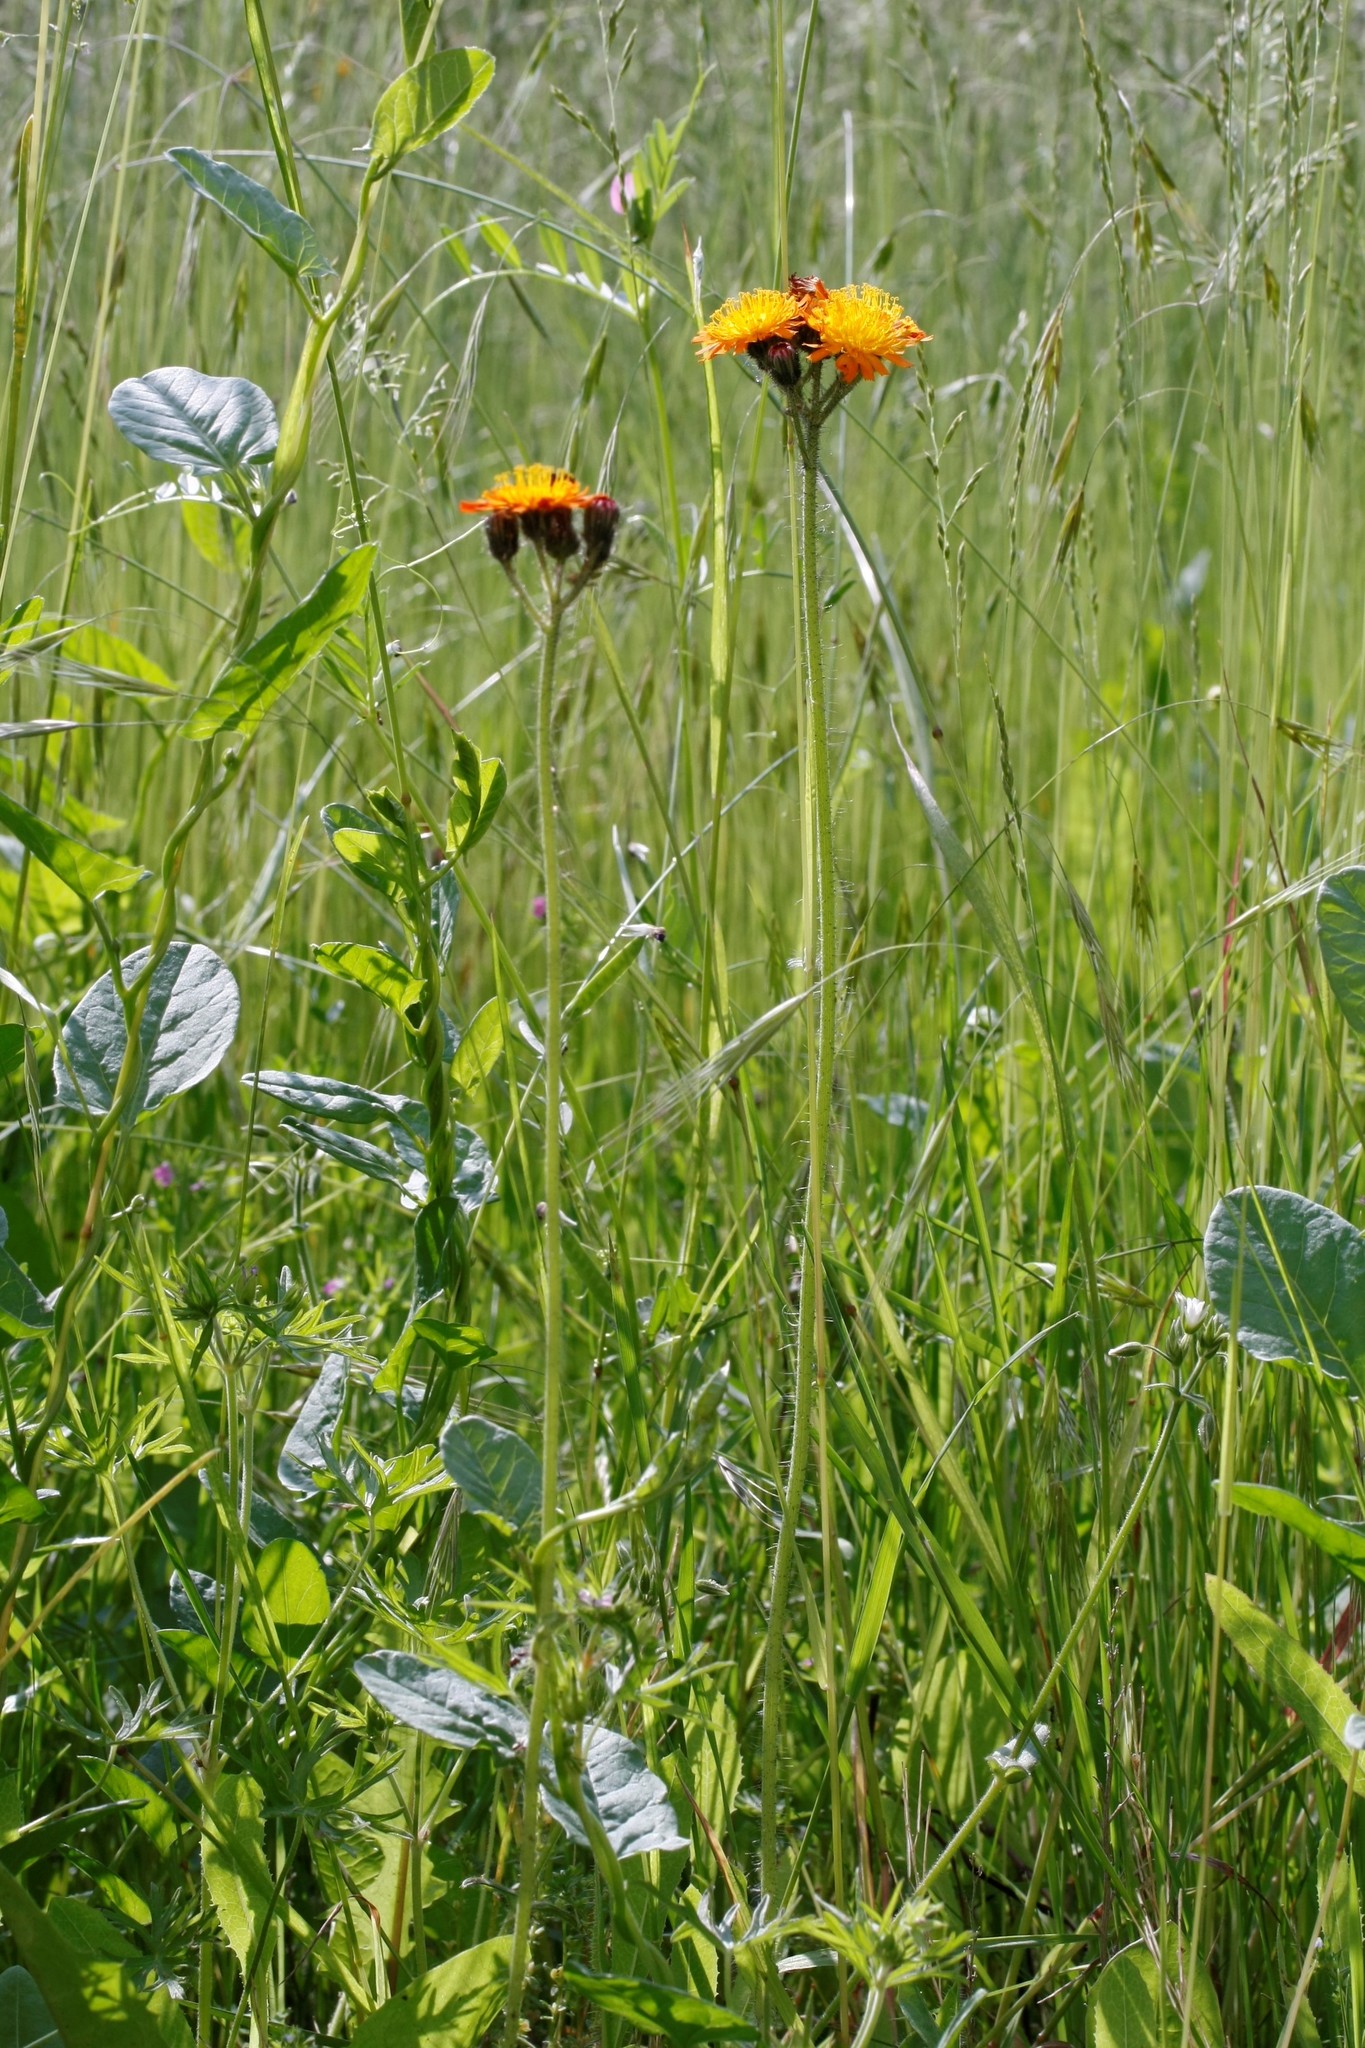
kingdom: Plantae
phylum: Tracheophyta
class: Magnoliopsida
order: Asterales
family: Asteraceae
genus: Pilosella
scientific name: Pilosella aurantiaca
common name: Fox-and-cubs
